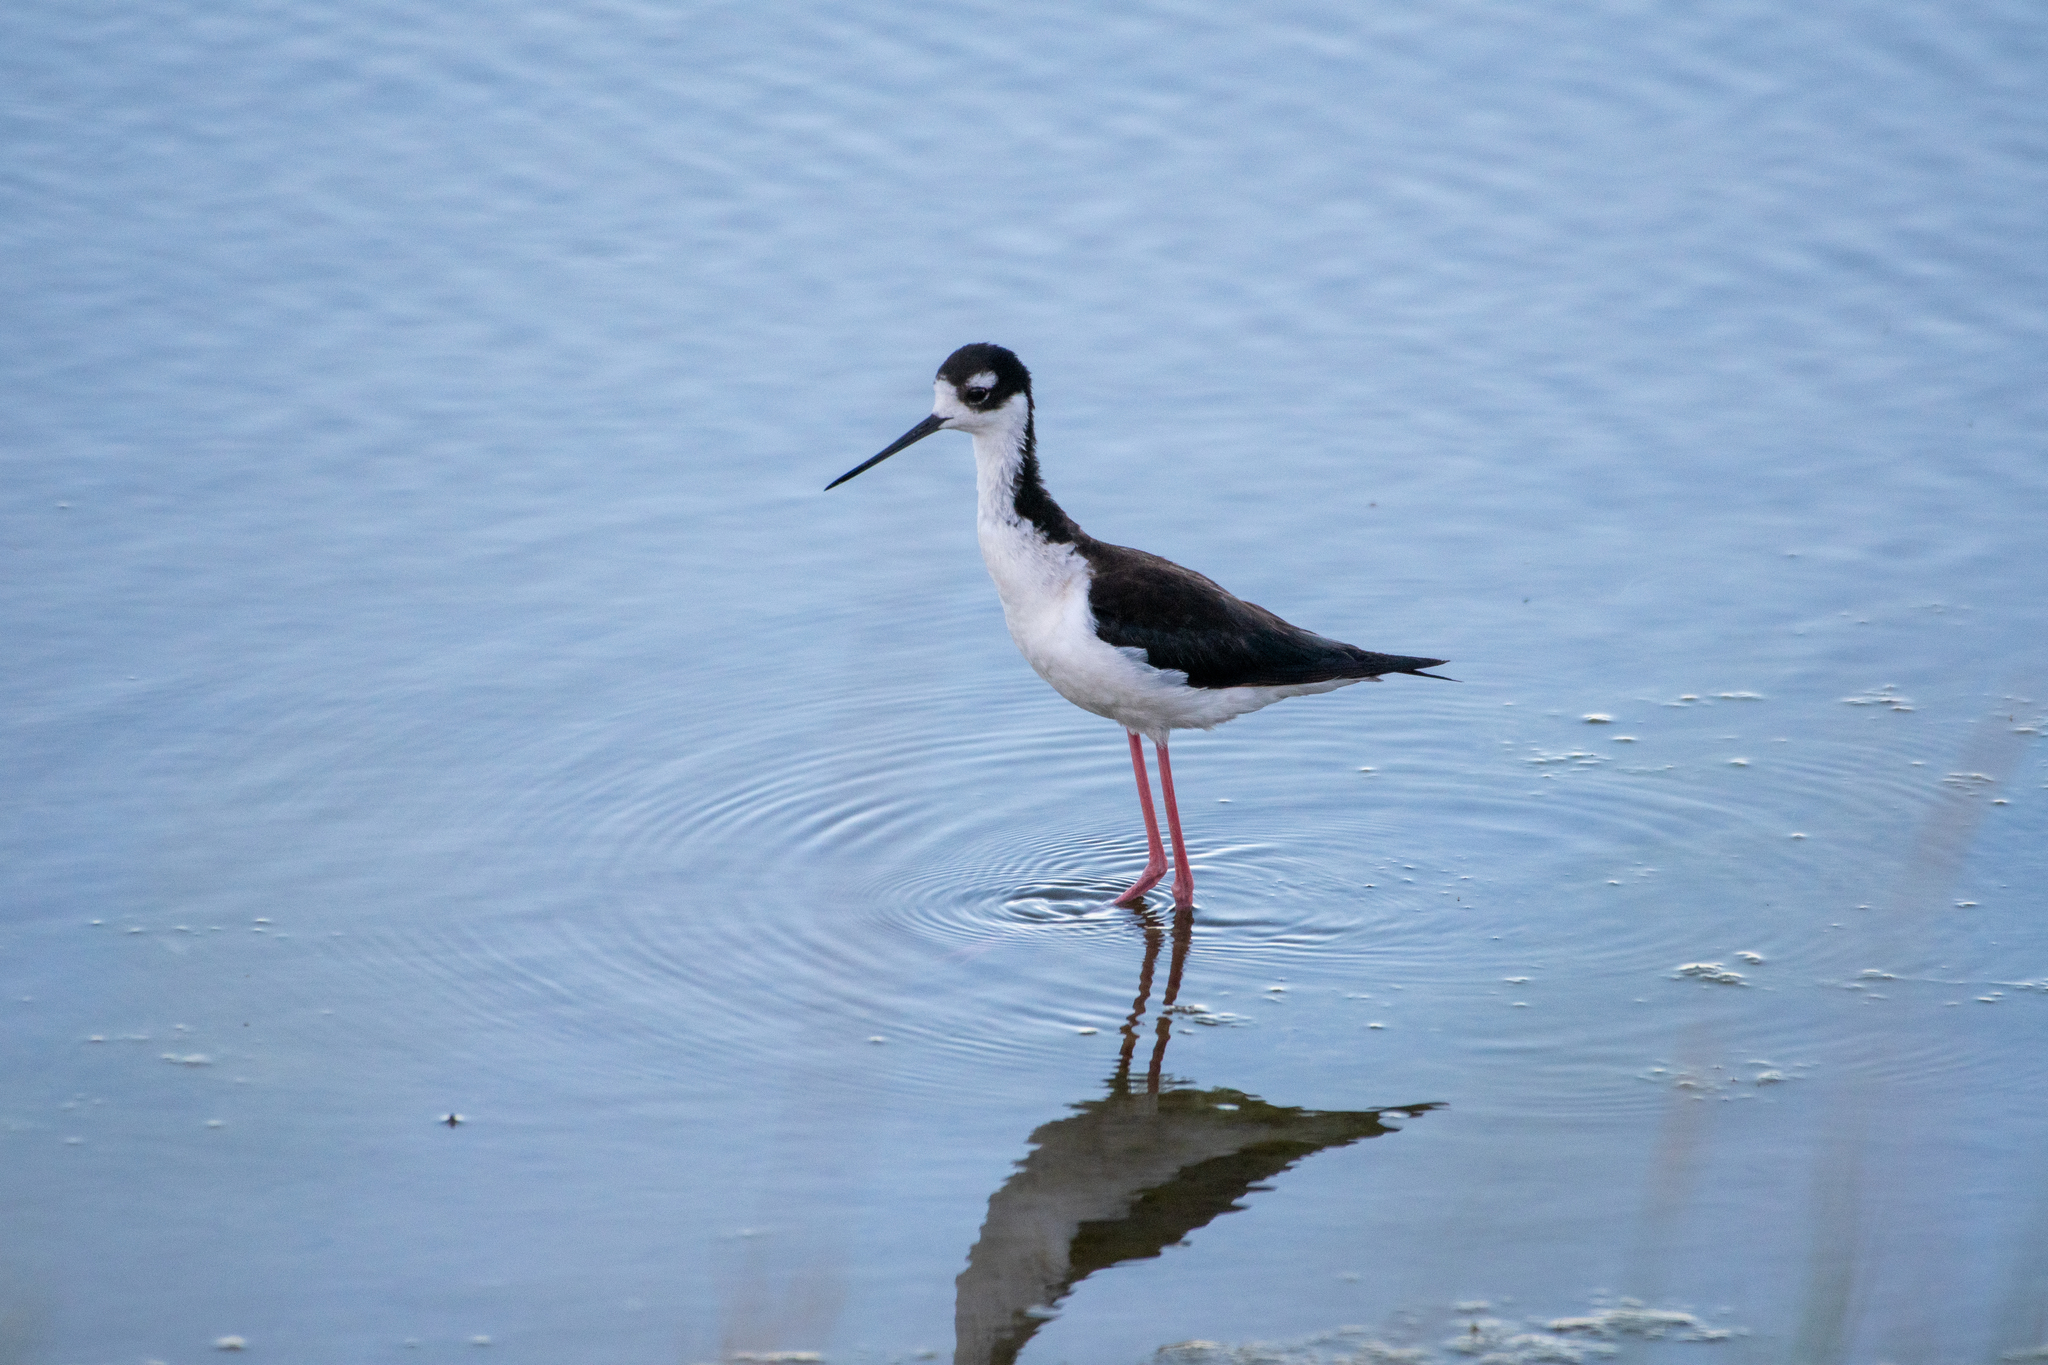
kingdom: Animalia
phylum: Chordata
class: Aves
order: Charadriiformes
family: Recurvirostridae
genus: Himantopus
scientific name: Himantopus mexicanus
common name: Black-necked stilt
